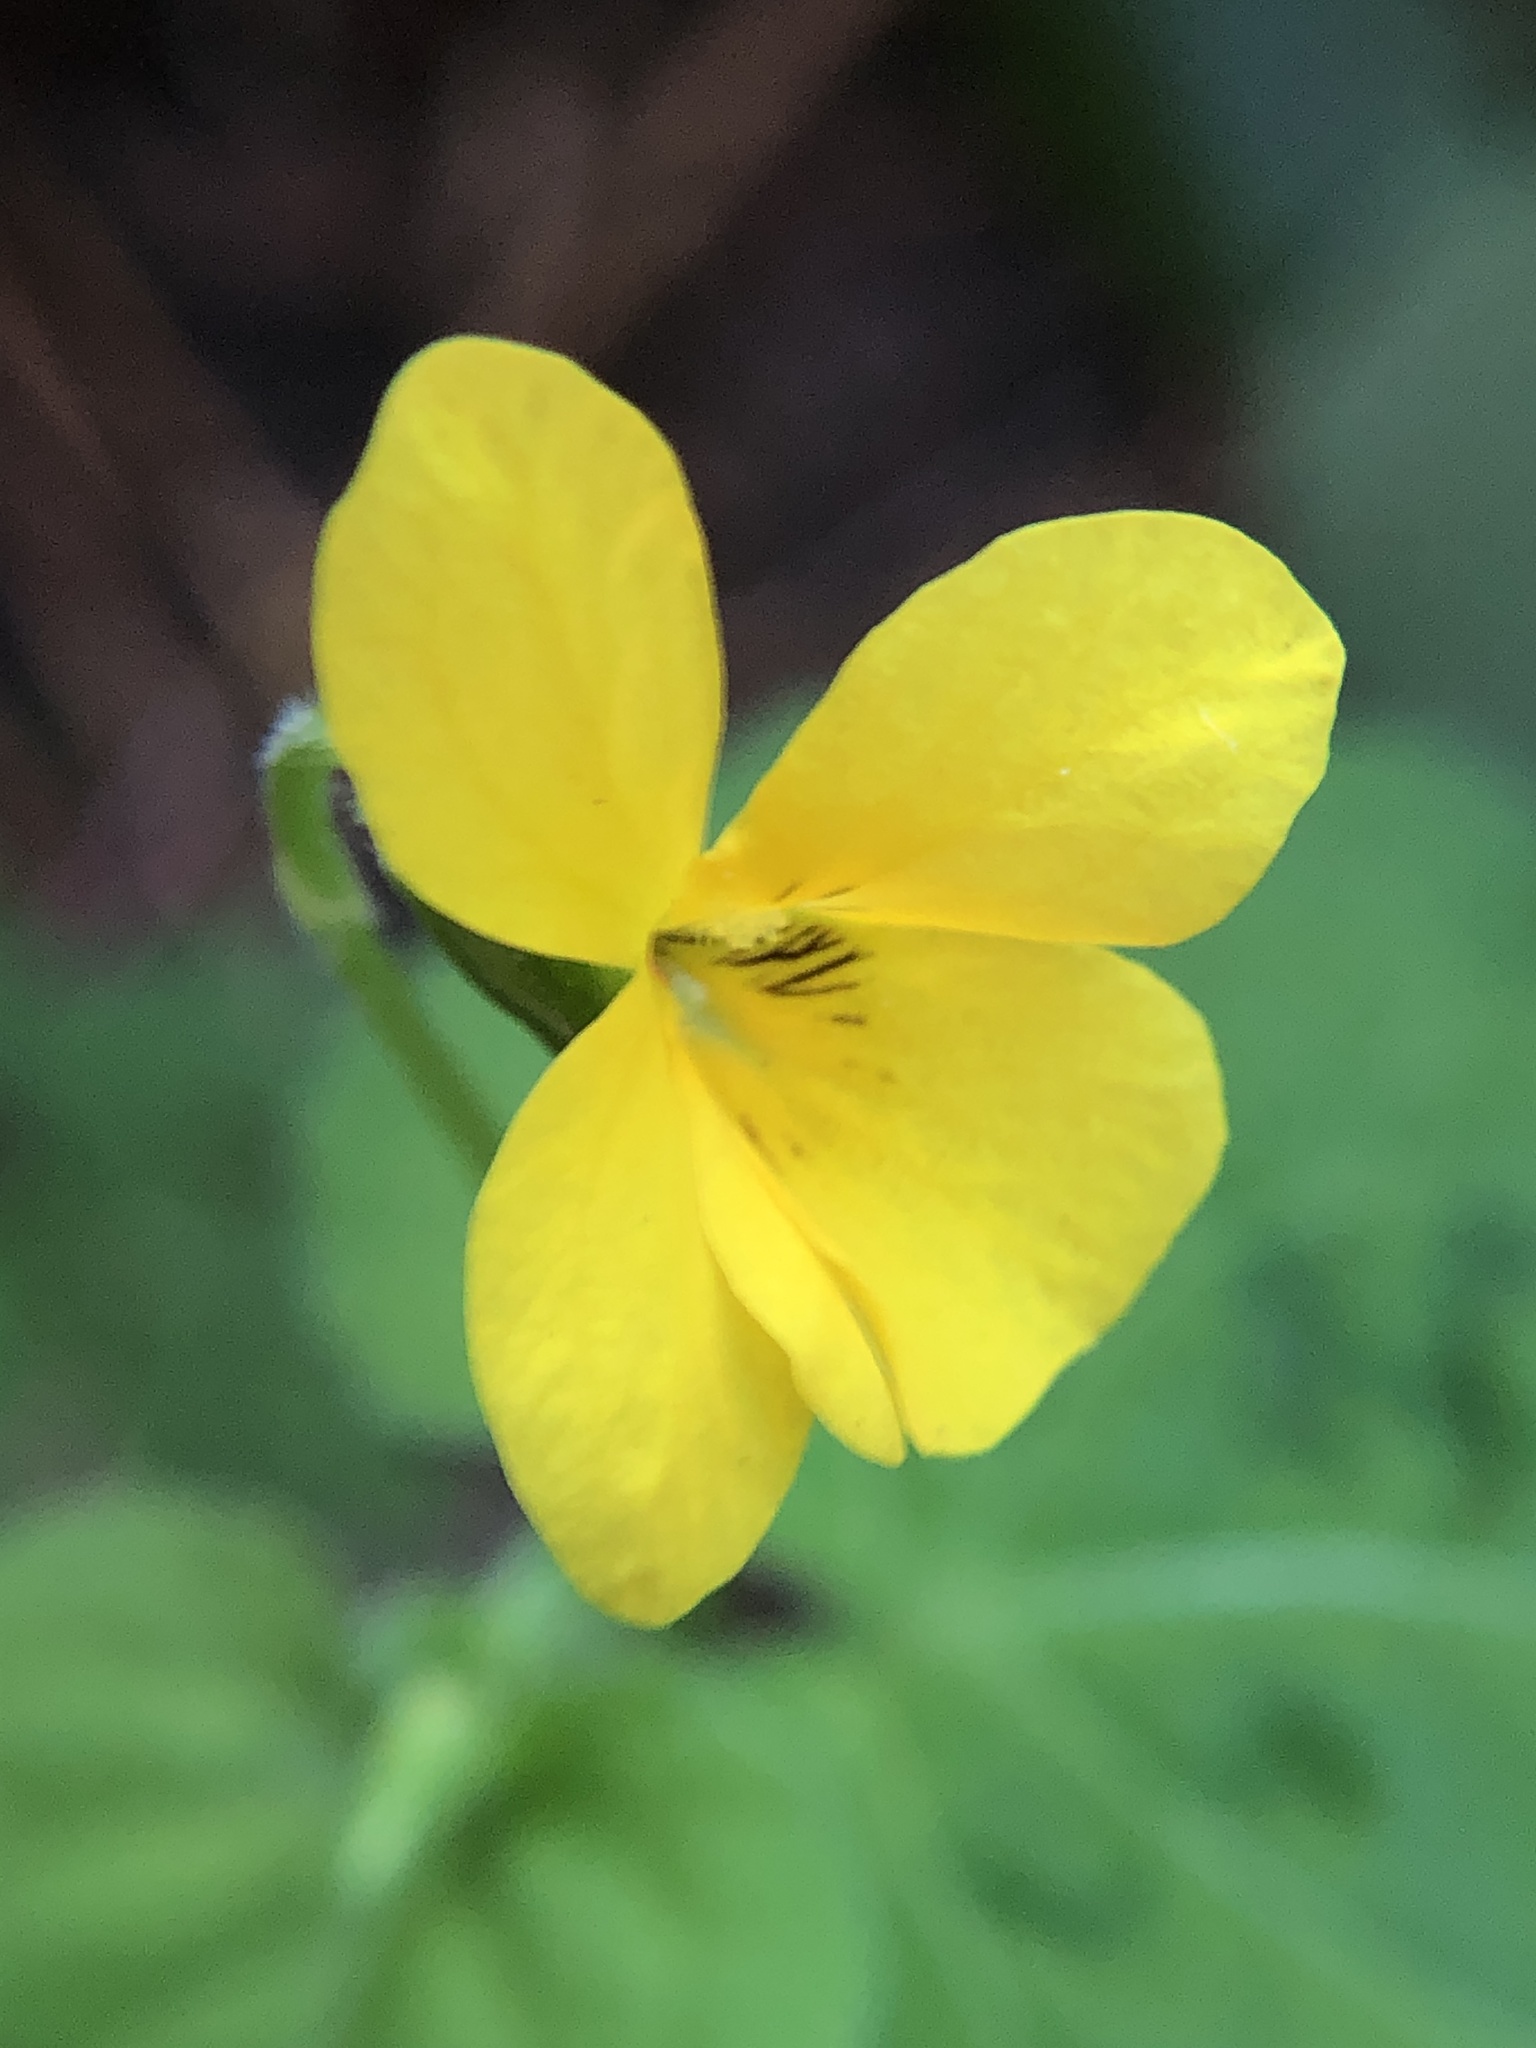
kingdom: Plantae
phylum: Tracheophyta
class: Magnoliopsida
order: Malpighiales
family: Violaceae
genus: Viola
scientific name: Viola glabella
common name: Stream violet
